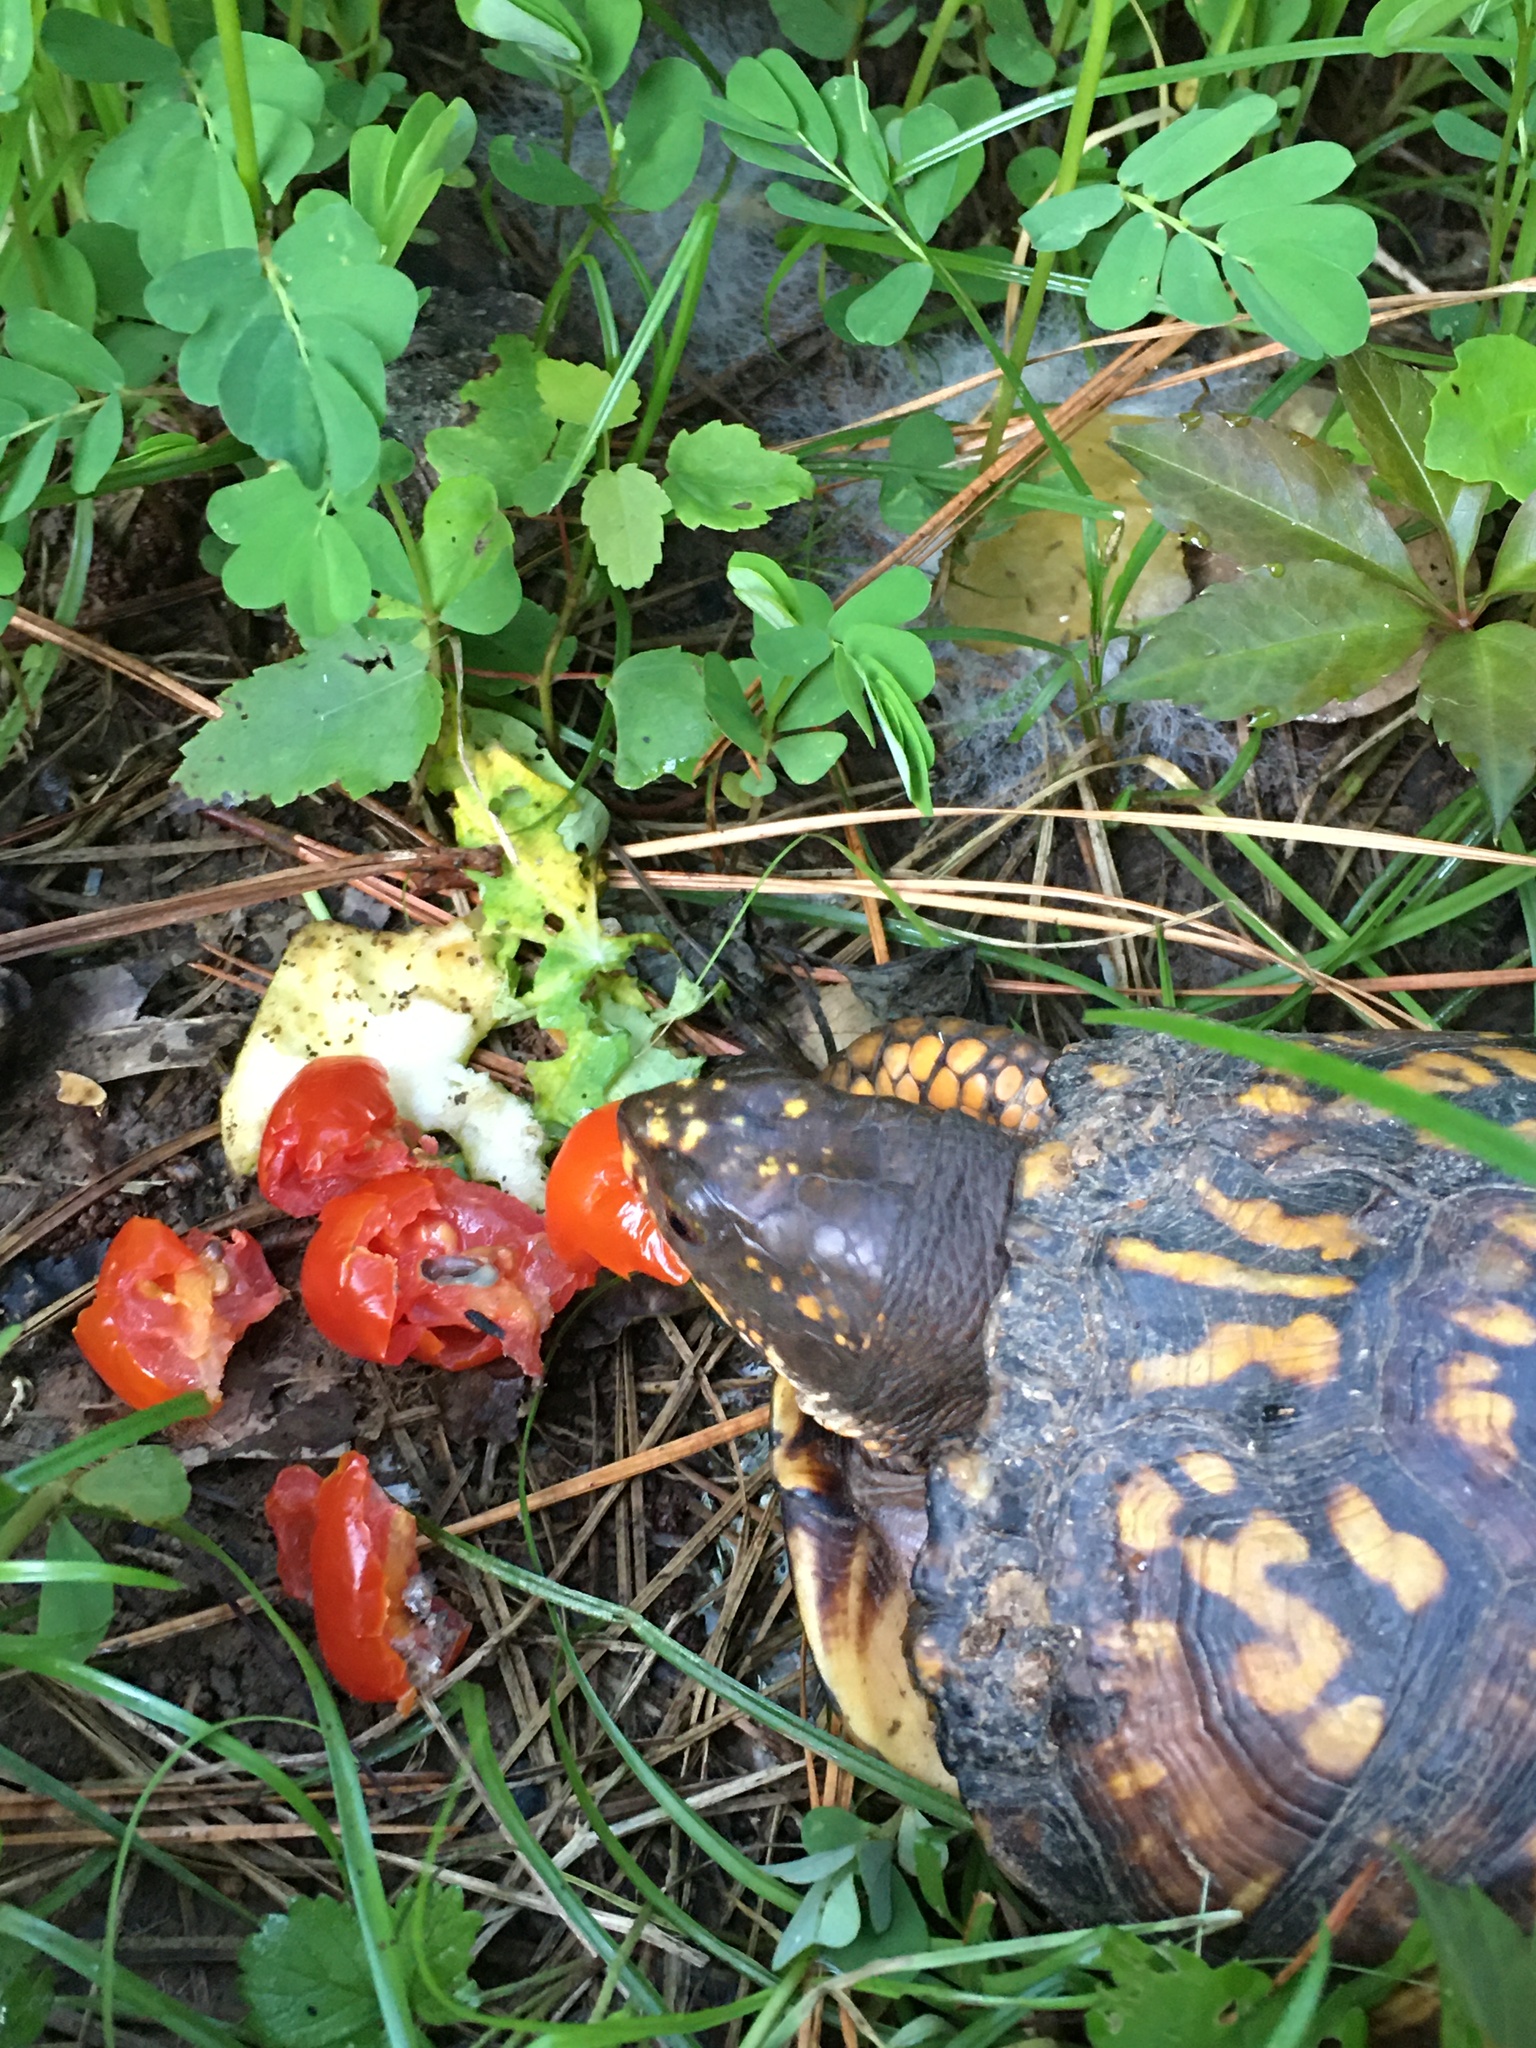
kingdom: Animalia
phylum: Chordata
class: Testudines
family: Emydidae
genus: Terrapene
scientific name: Terrapene carolina
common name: Common box turtle
